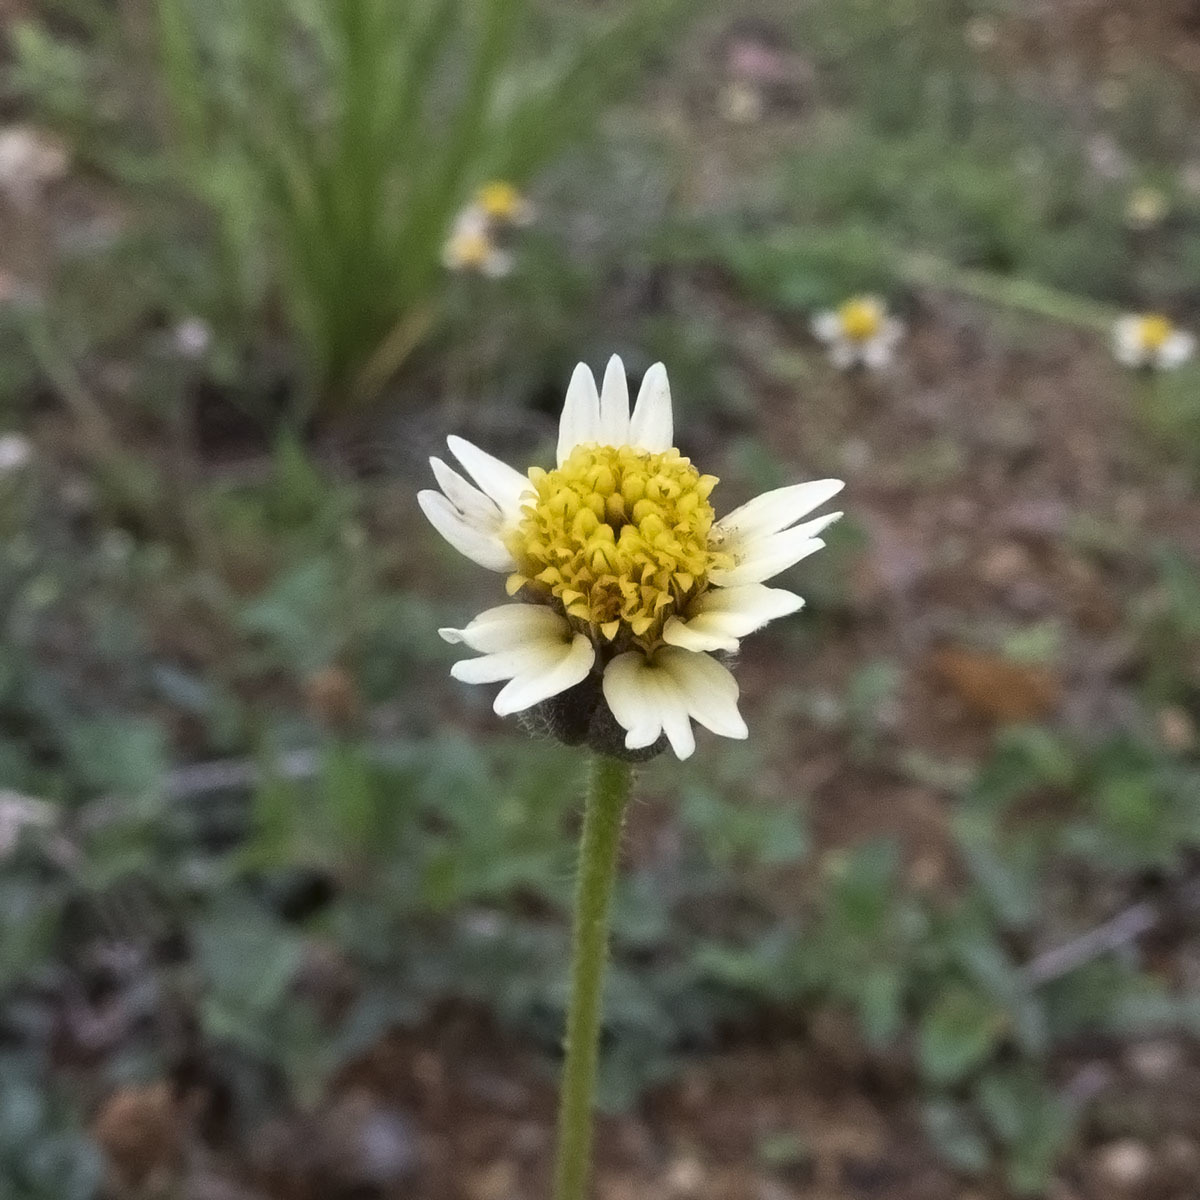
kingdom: Plantae
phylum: Tracheophyta
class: Magnoliopsida
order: Asterales
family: Asteraceae
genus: Tridax
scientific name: Tridax procumbens
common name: Coatbuttons
